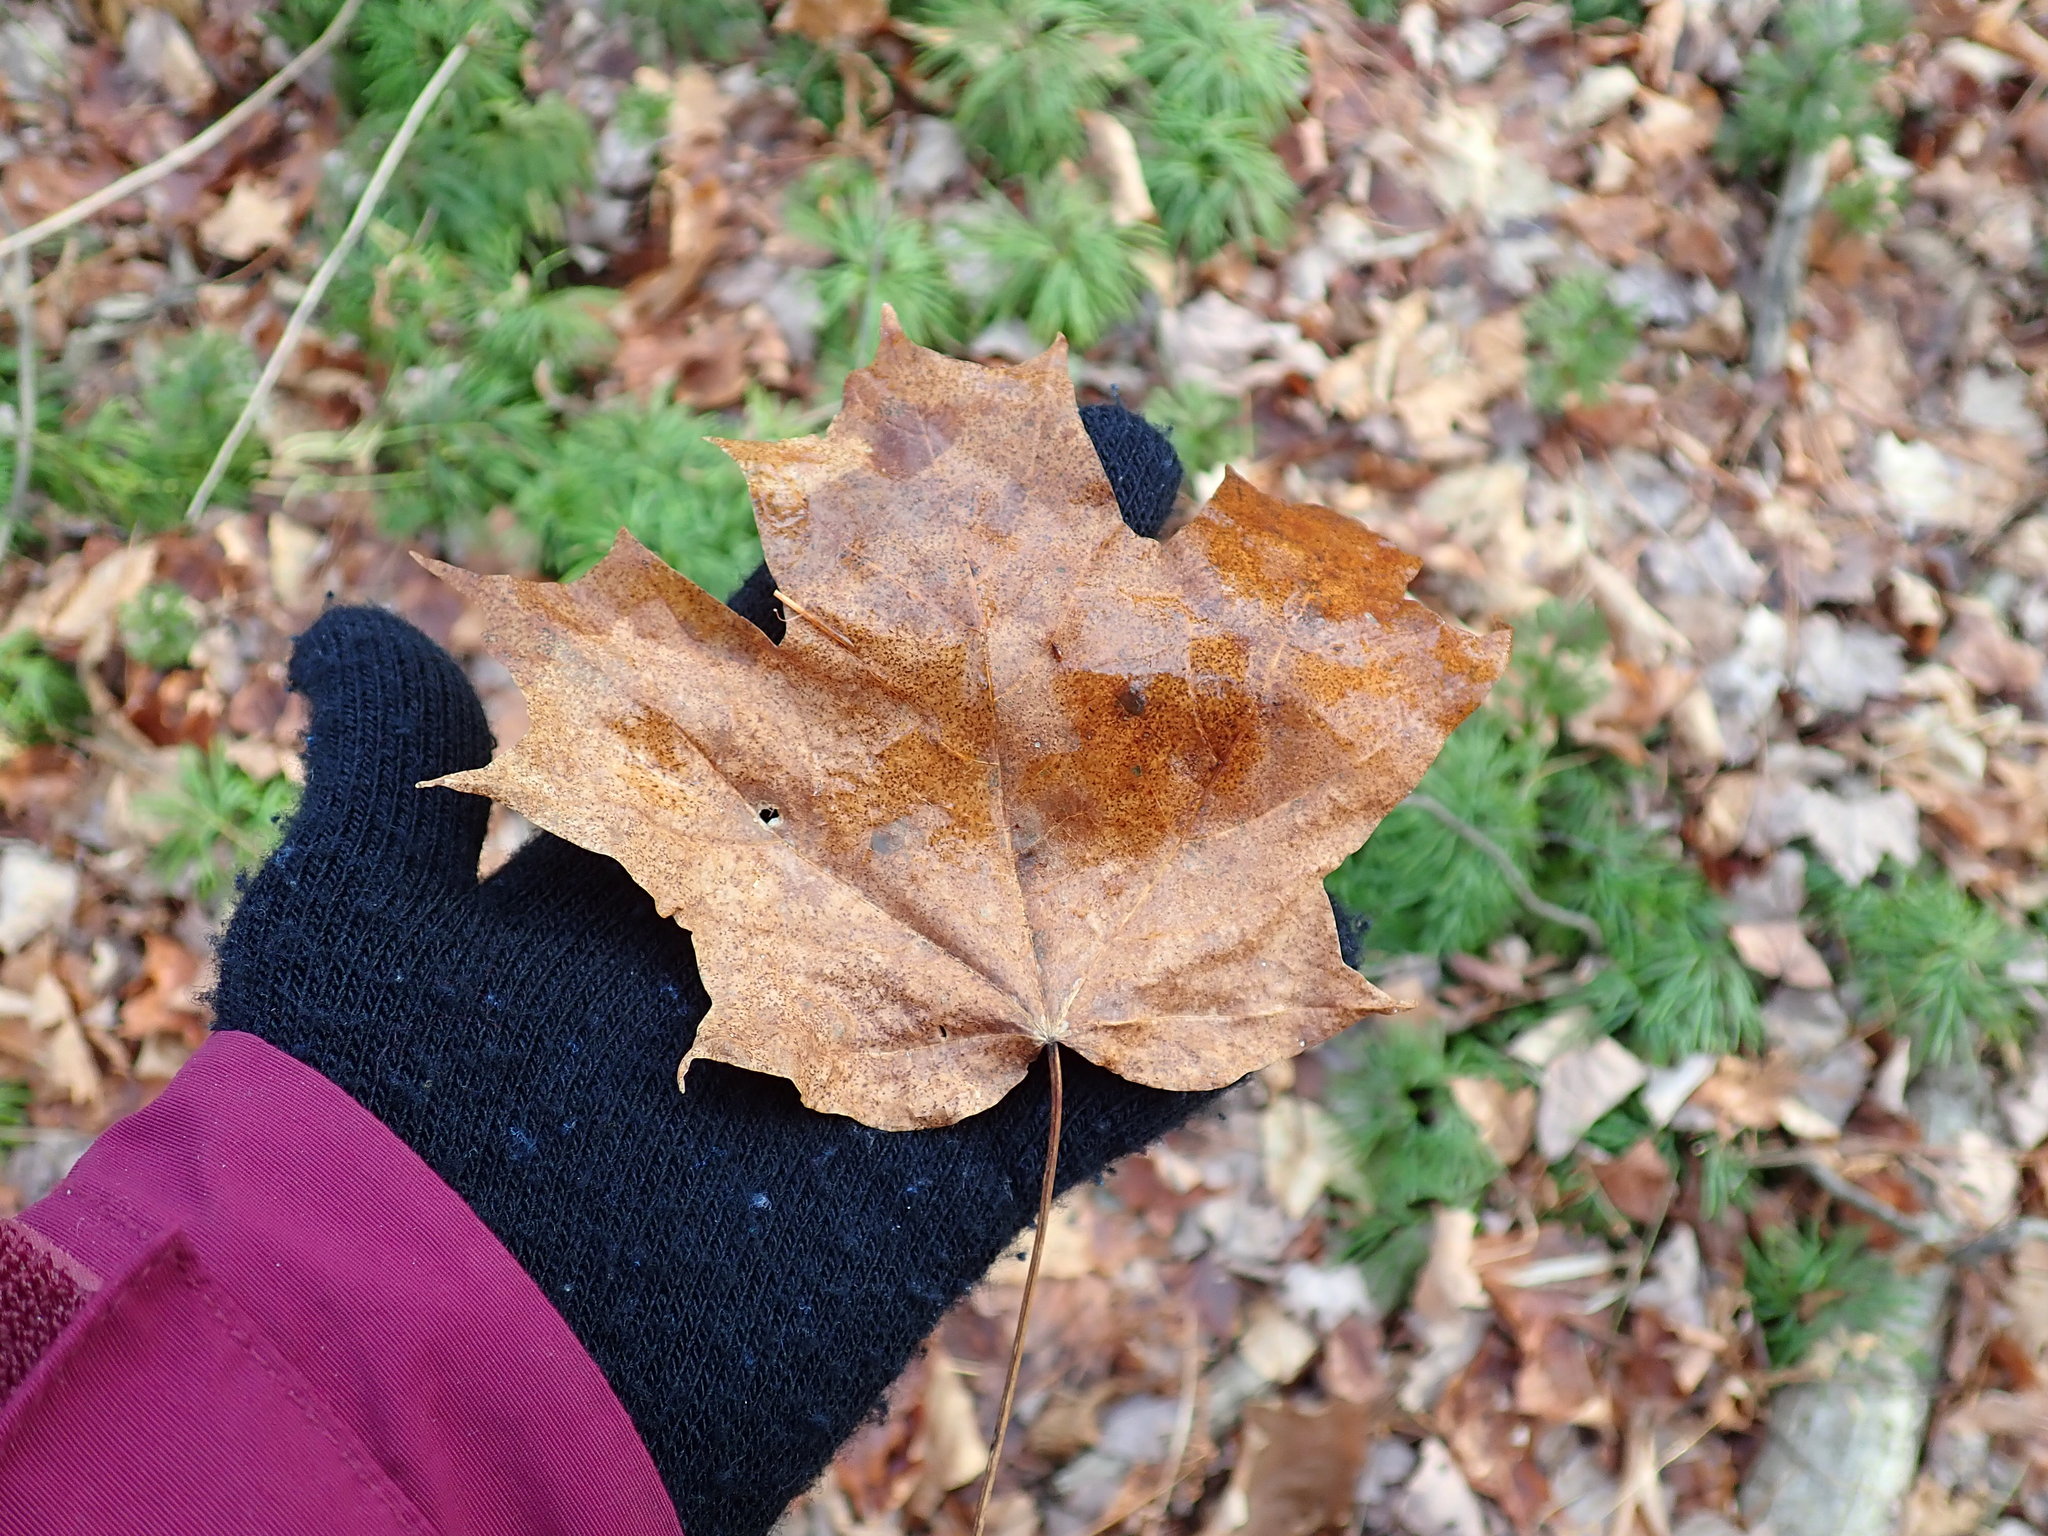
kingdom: Plantae
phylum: Tracheophyta
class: Magnoliopsida
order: Sapindales
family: Sapindaceae
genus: Acer
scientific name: Acer saccharum
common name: Sugar maple
